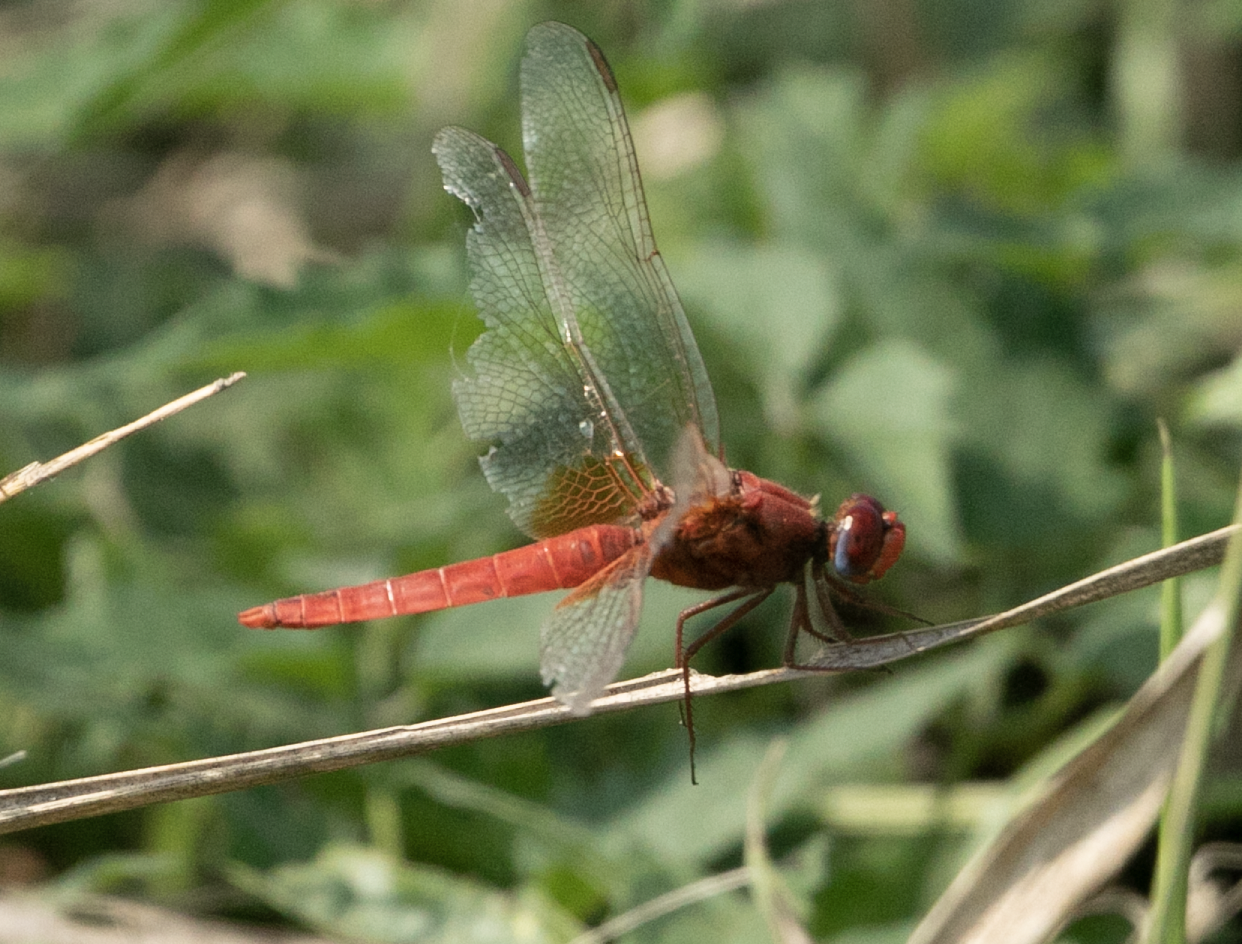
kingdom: Animalia
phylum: Arthropoda
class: Insecta
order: Odonata
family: Libellulidae
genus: Crocothemis
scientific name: Crocothemis erythraea
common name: Scarlet dragonfly
